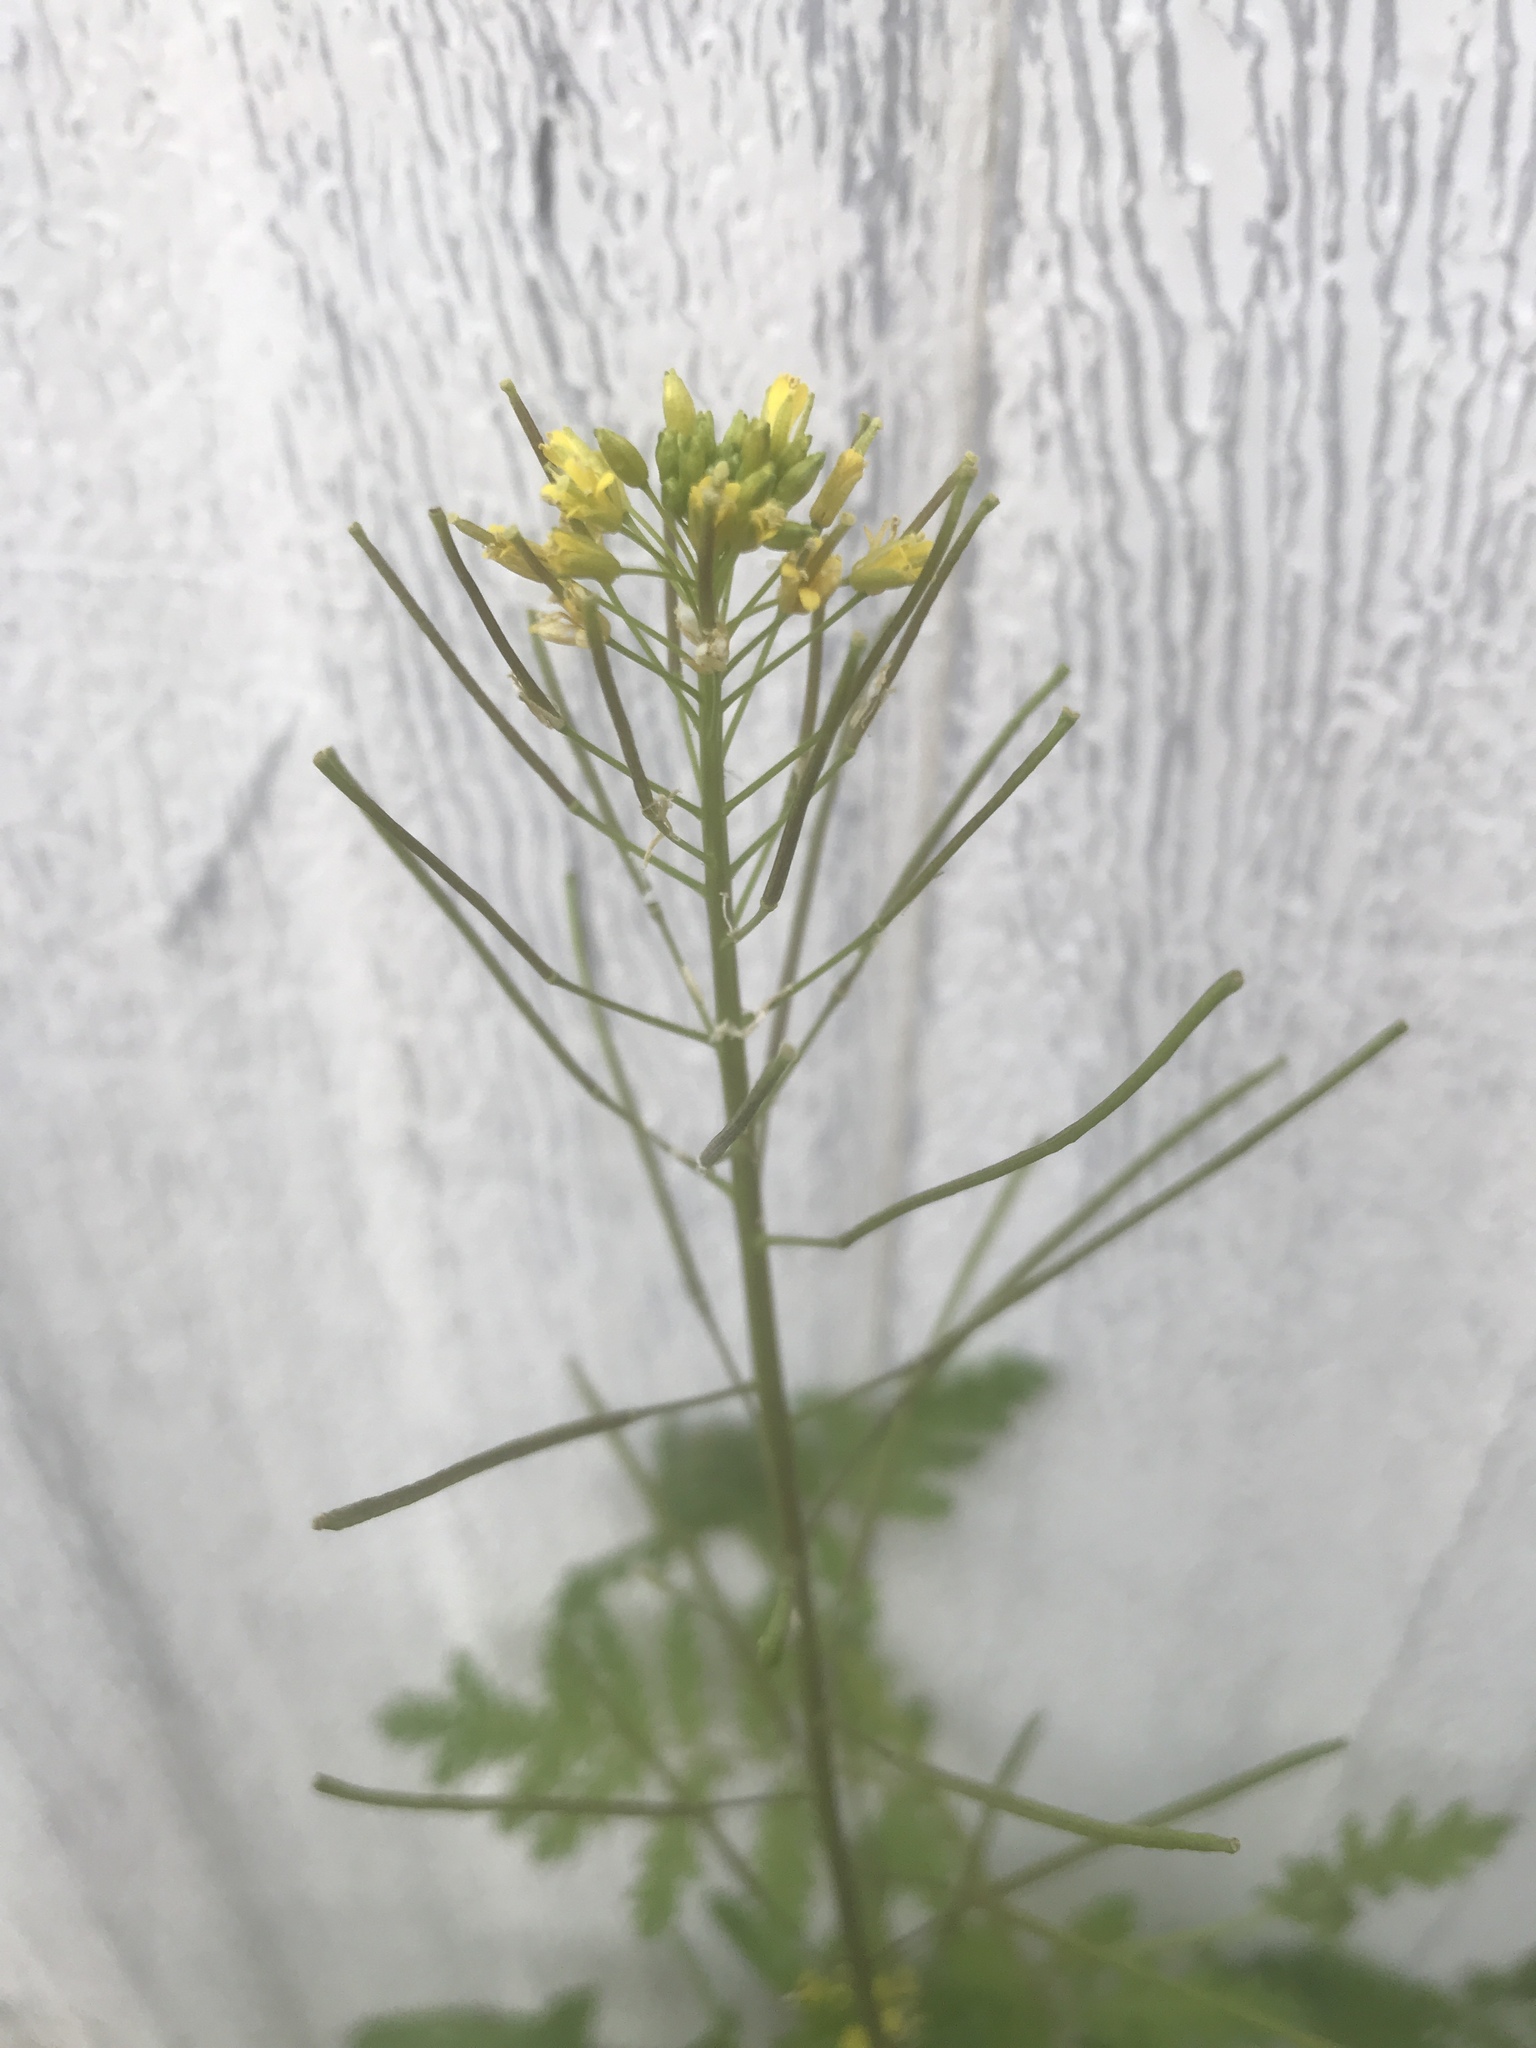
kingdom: Plantae
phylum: Tracheophyta
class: Magnoliopsida
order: Brassicales
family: Brassicaceae
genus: Sisymbrium
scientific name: Sisymbrium irio
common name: London rocket
